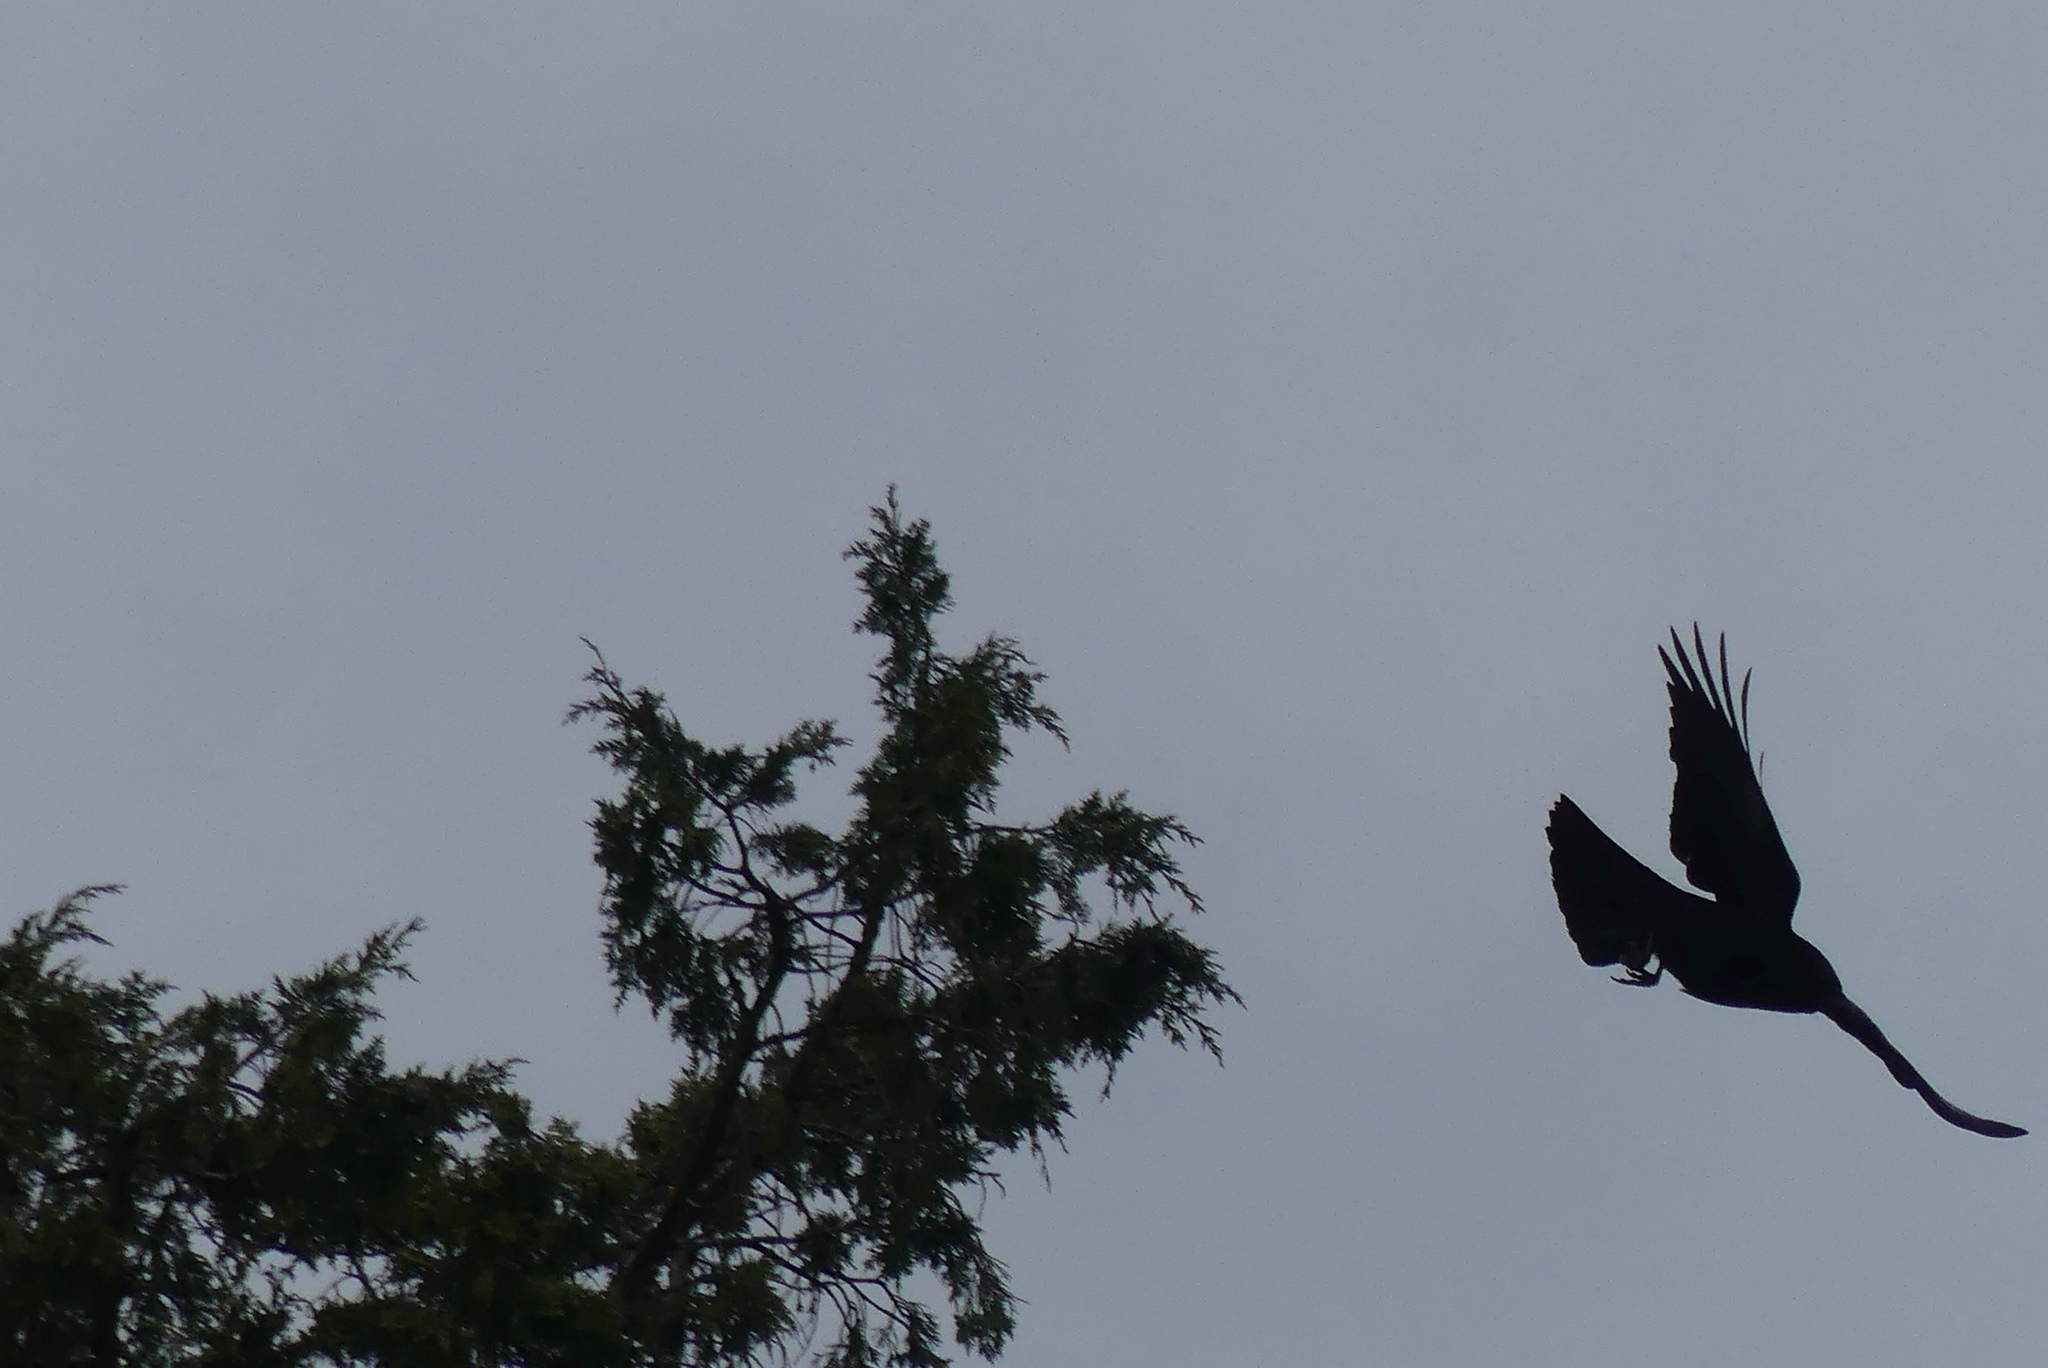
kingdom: Animalia
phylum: Chordata
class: Aves
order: Passeriformes
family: Corvidae
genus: Corvus
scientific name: Corvus brachyrhynchos
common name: American crow
